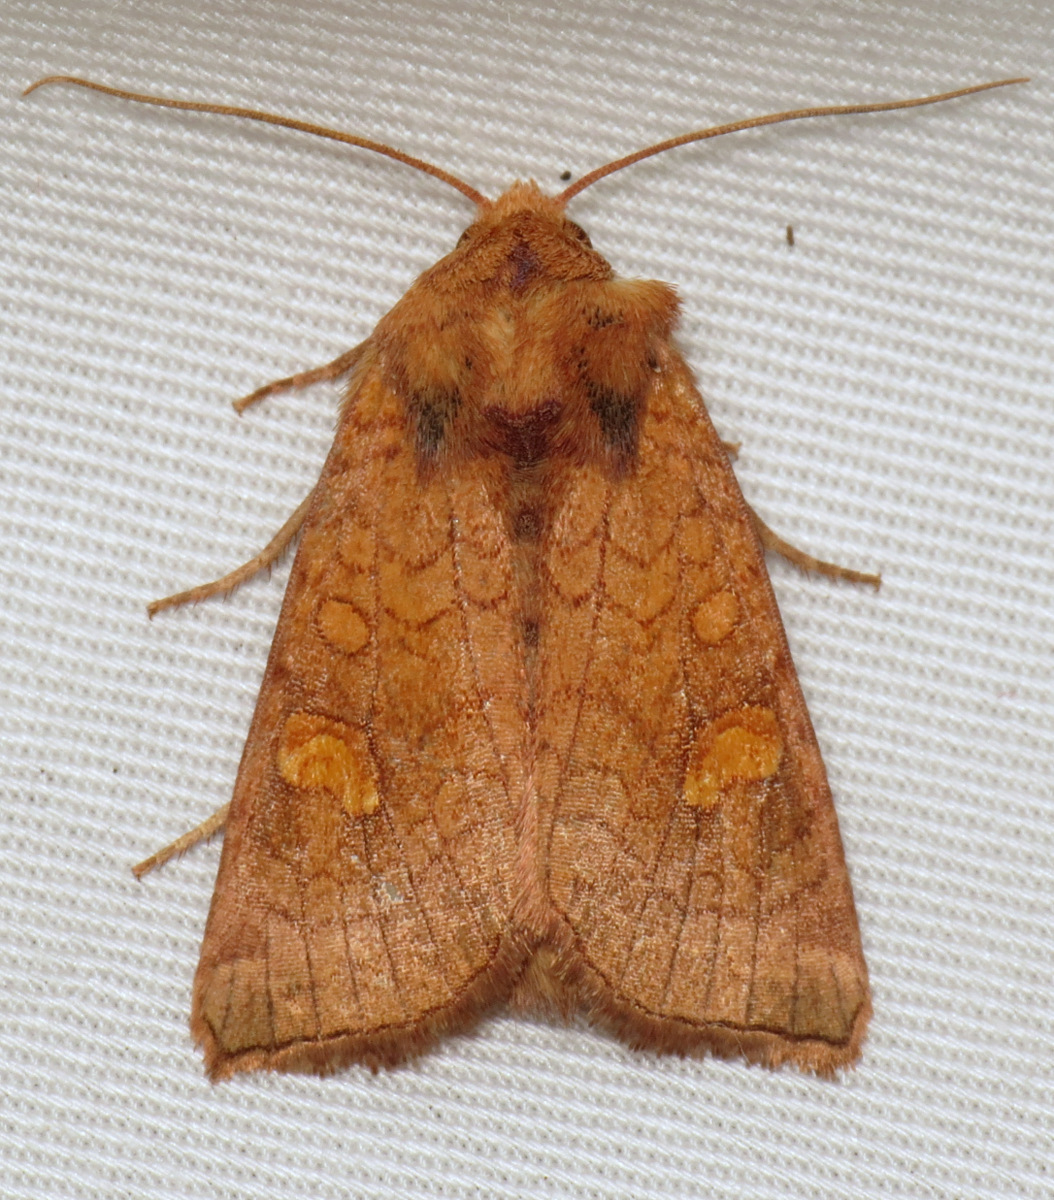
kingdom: Animalia
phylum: Arthropoda
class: Insecta
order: Lepidoptera
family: Noctuidae
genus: Amphipoea
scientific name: Amphipoea americana
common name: American ear moth
